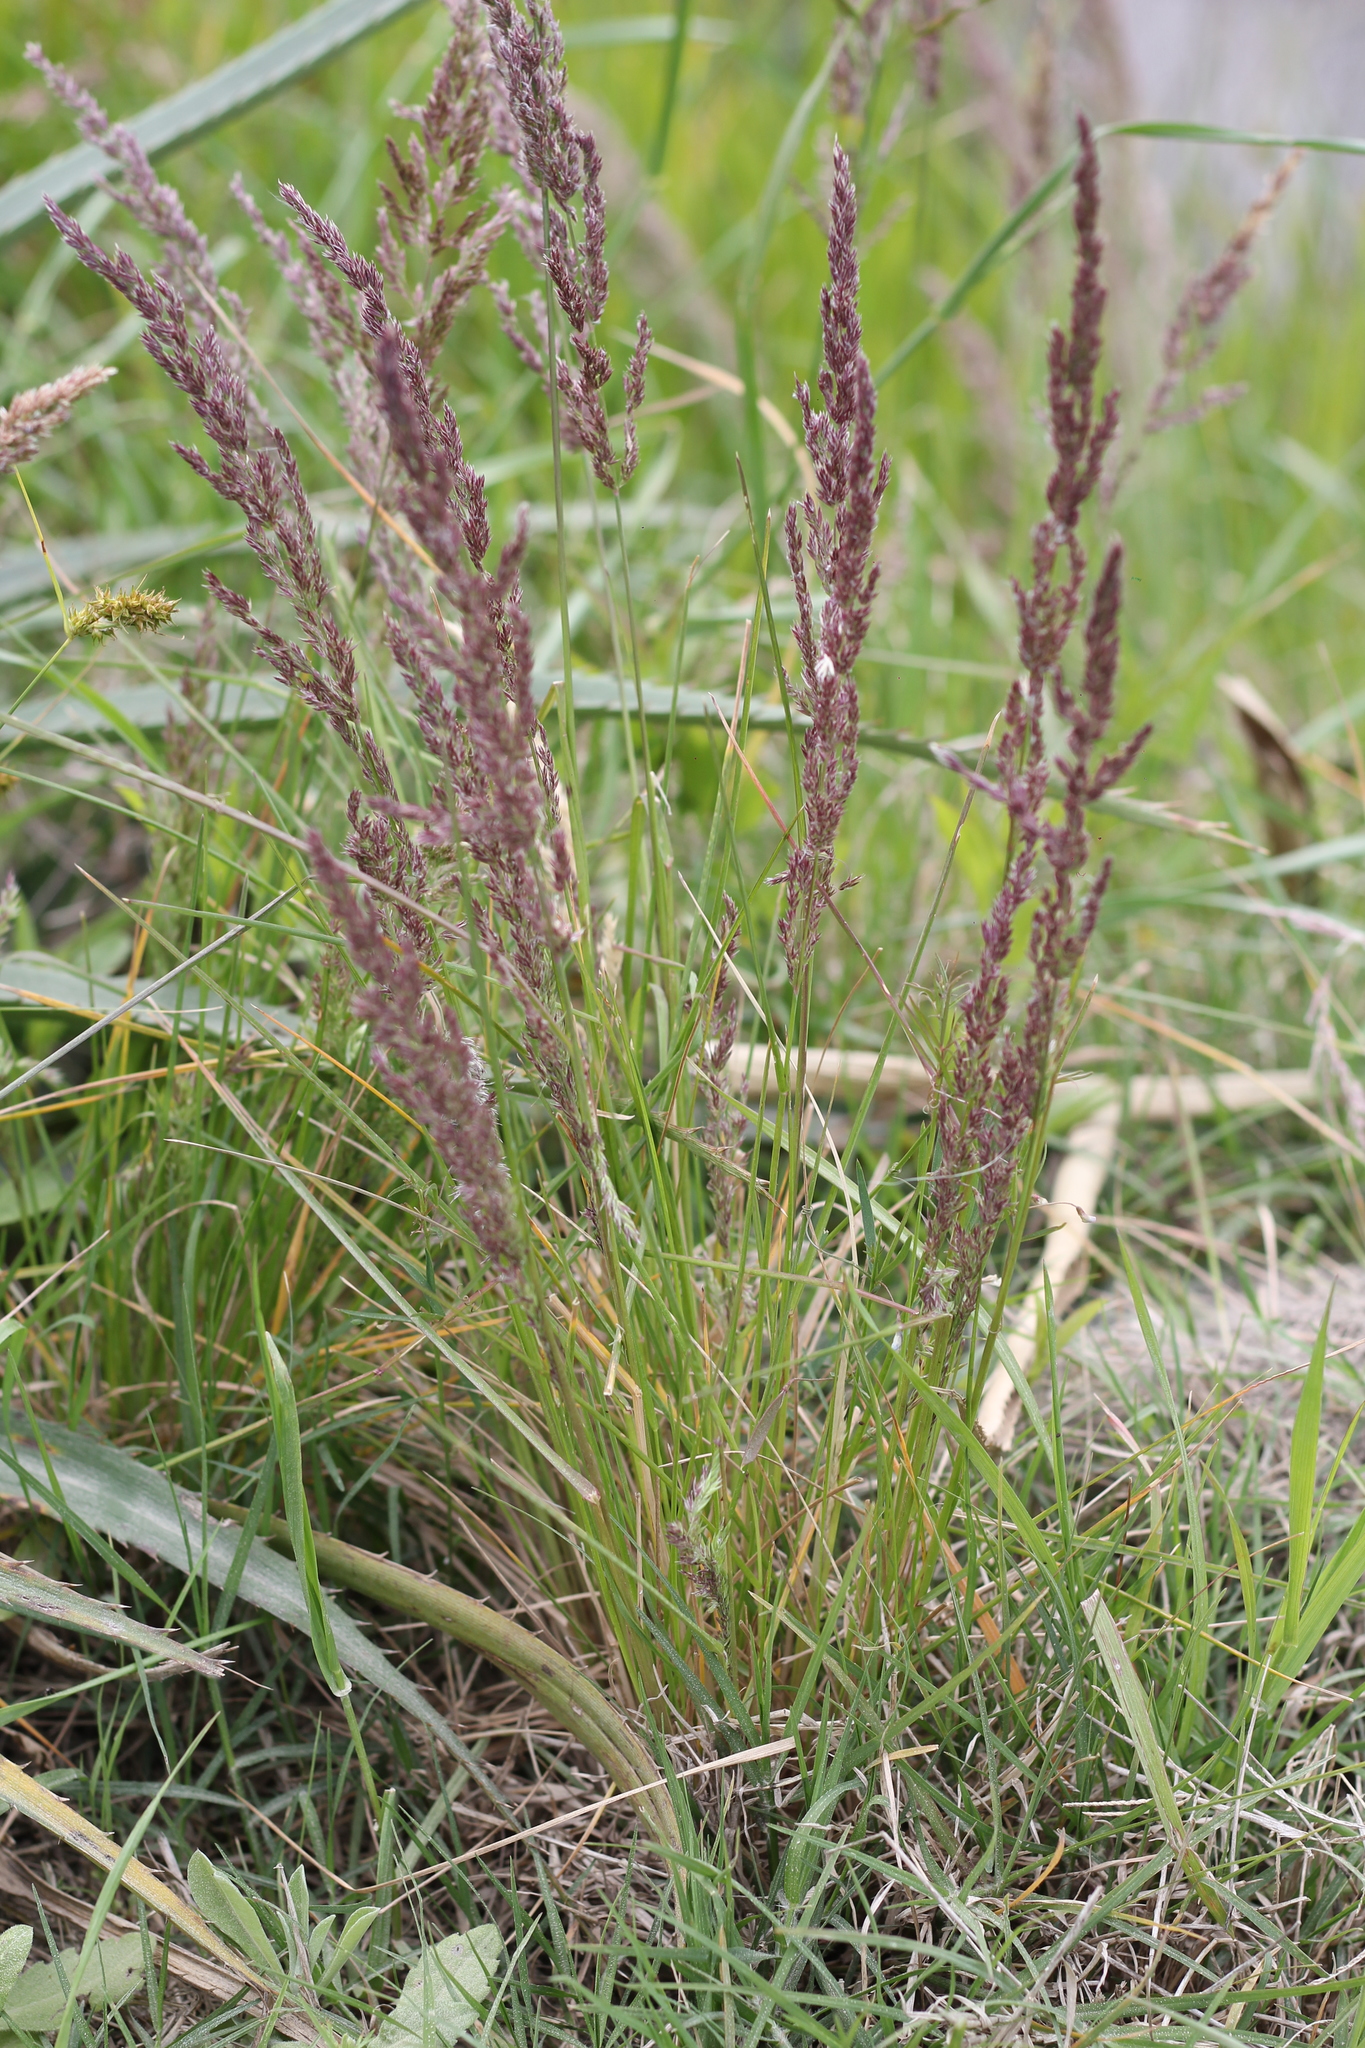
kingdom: Plantae
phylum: Tracheophyta
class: Liliopsida
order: Poales
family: Poaceae
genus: Poa
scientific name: Poa ligularis
